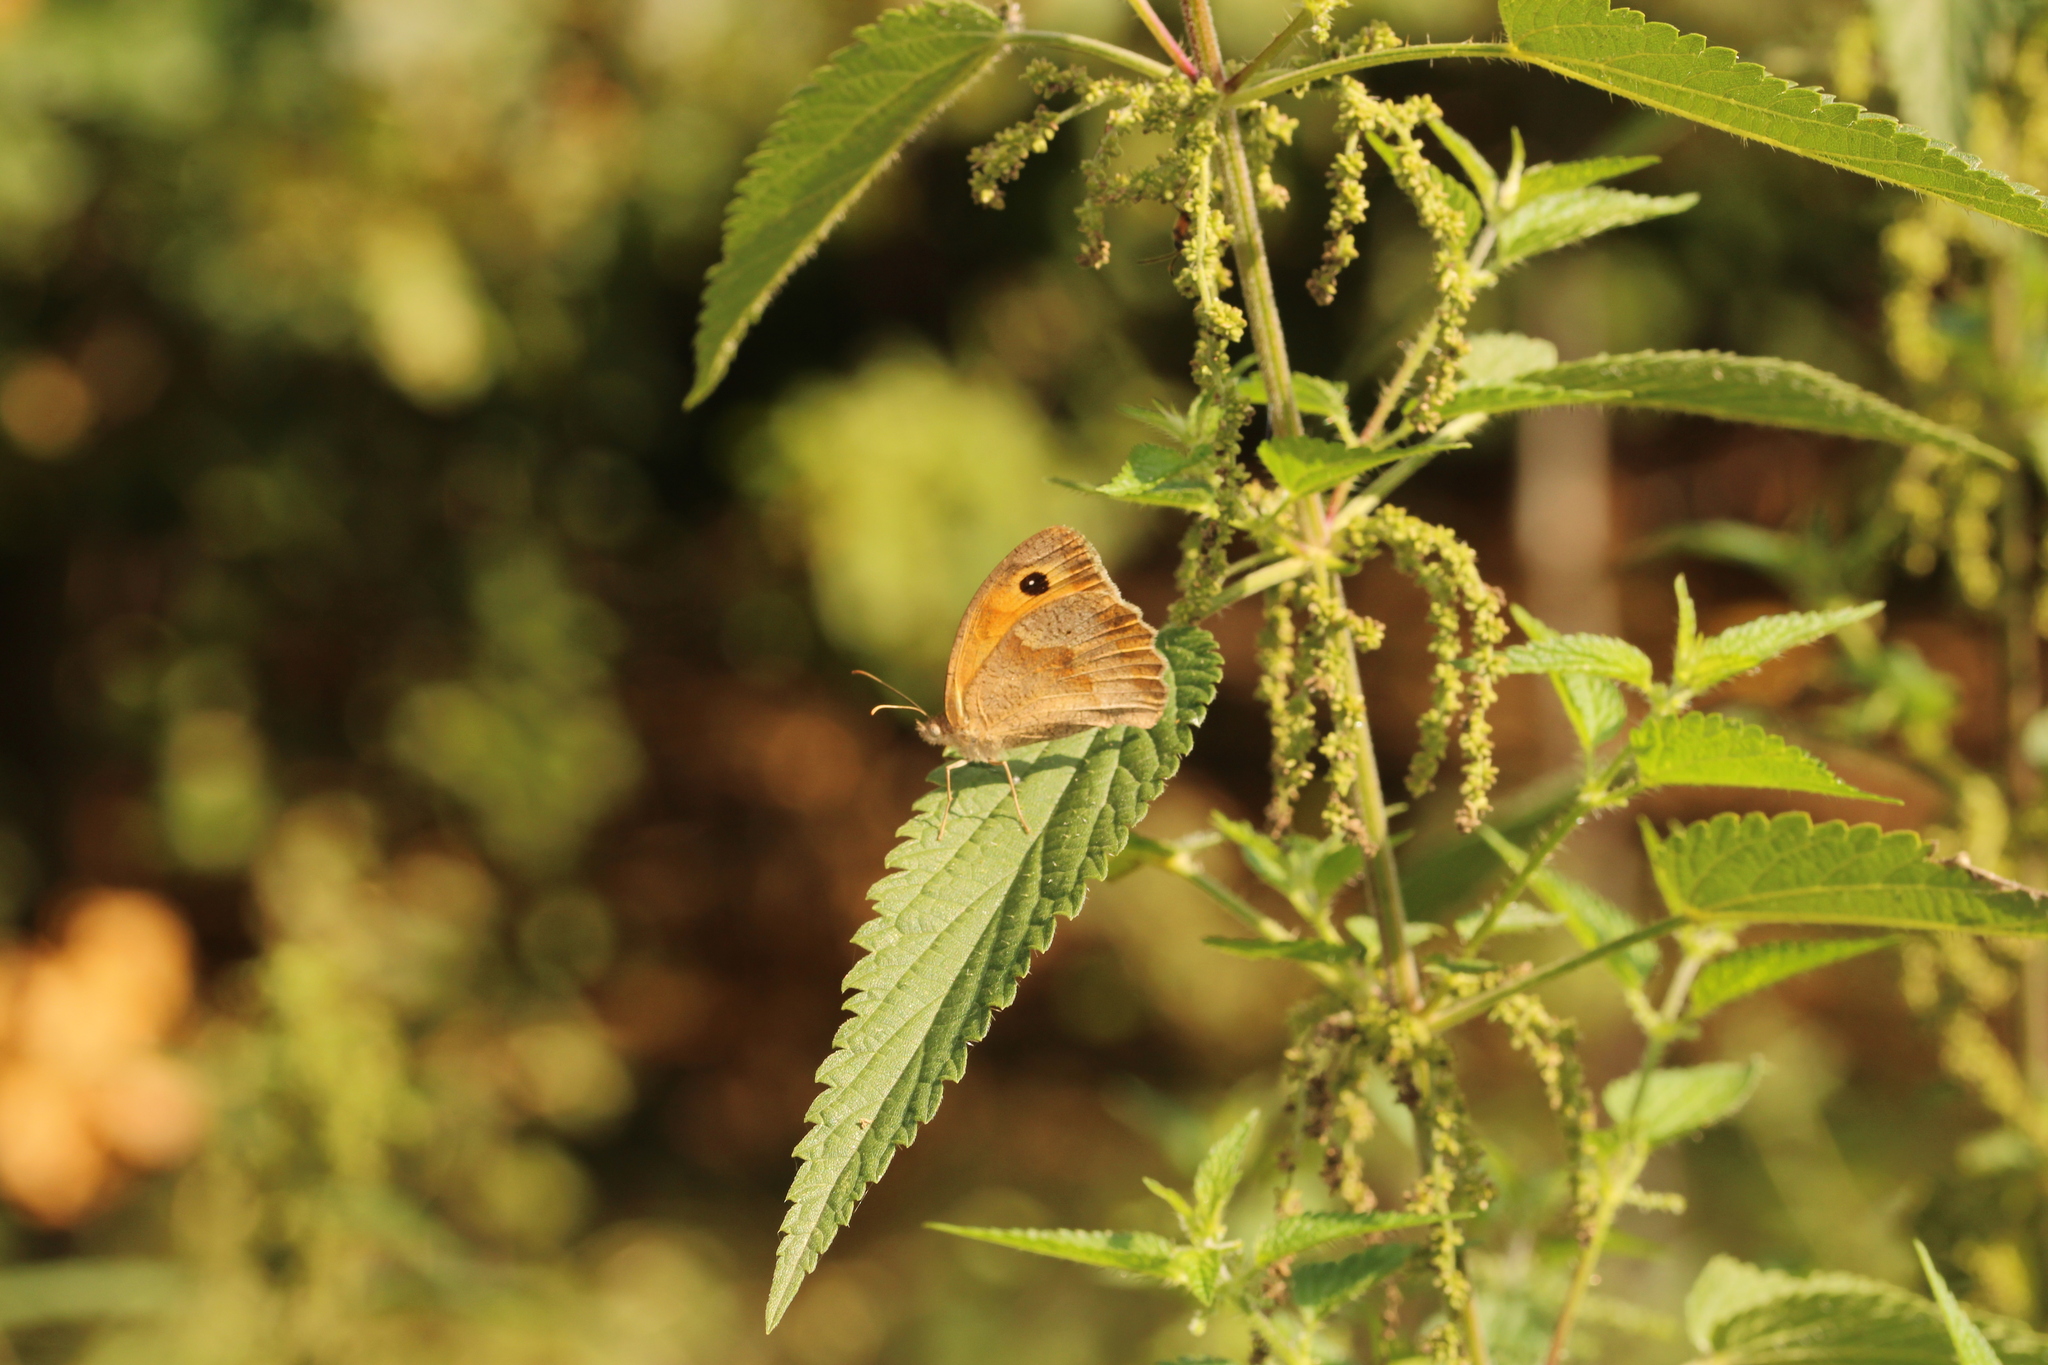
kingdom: Animalia
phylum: Arthropoda
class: Insecta
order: Lepidoptera
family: Nymphalidae
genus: Maniola
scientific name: Maniola jurtina
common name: Meadow brown
